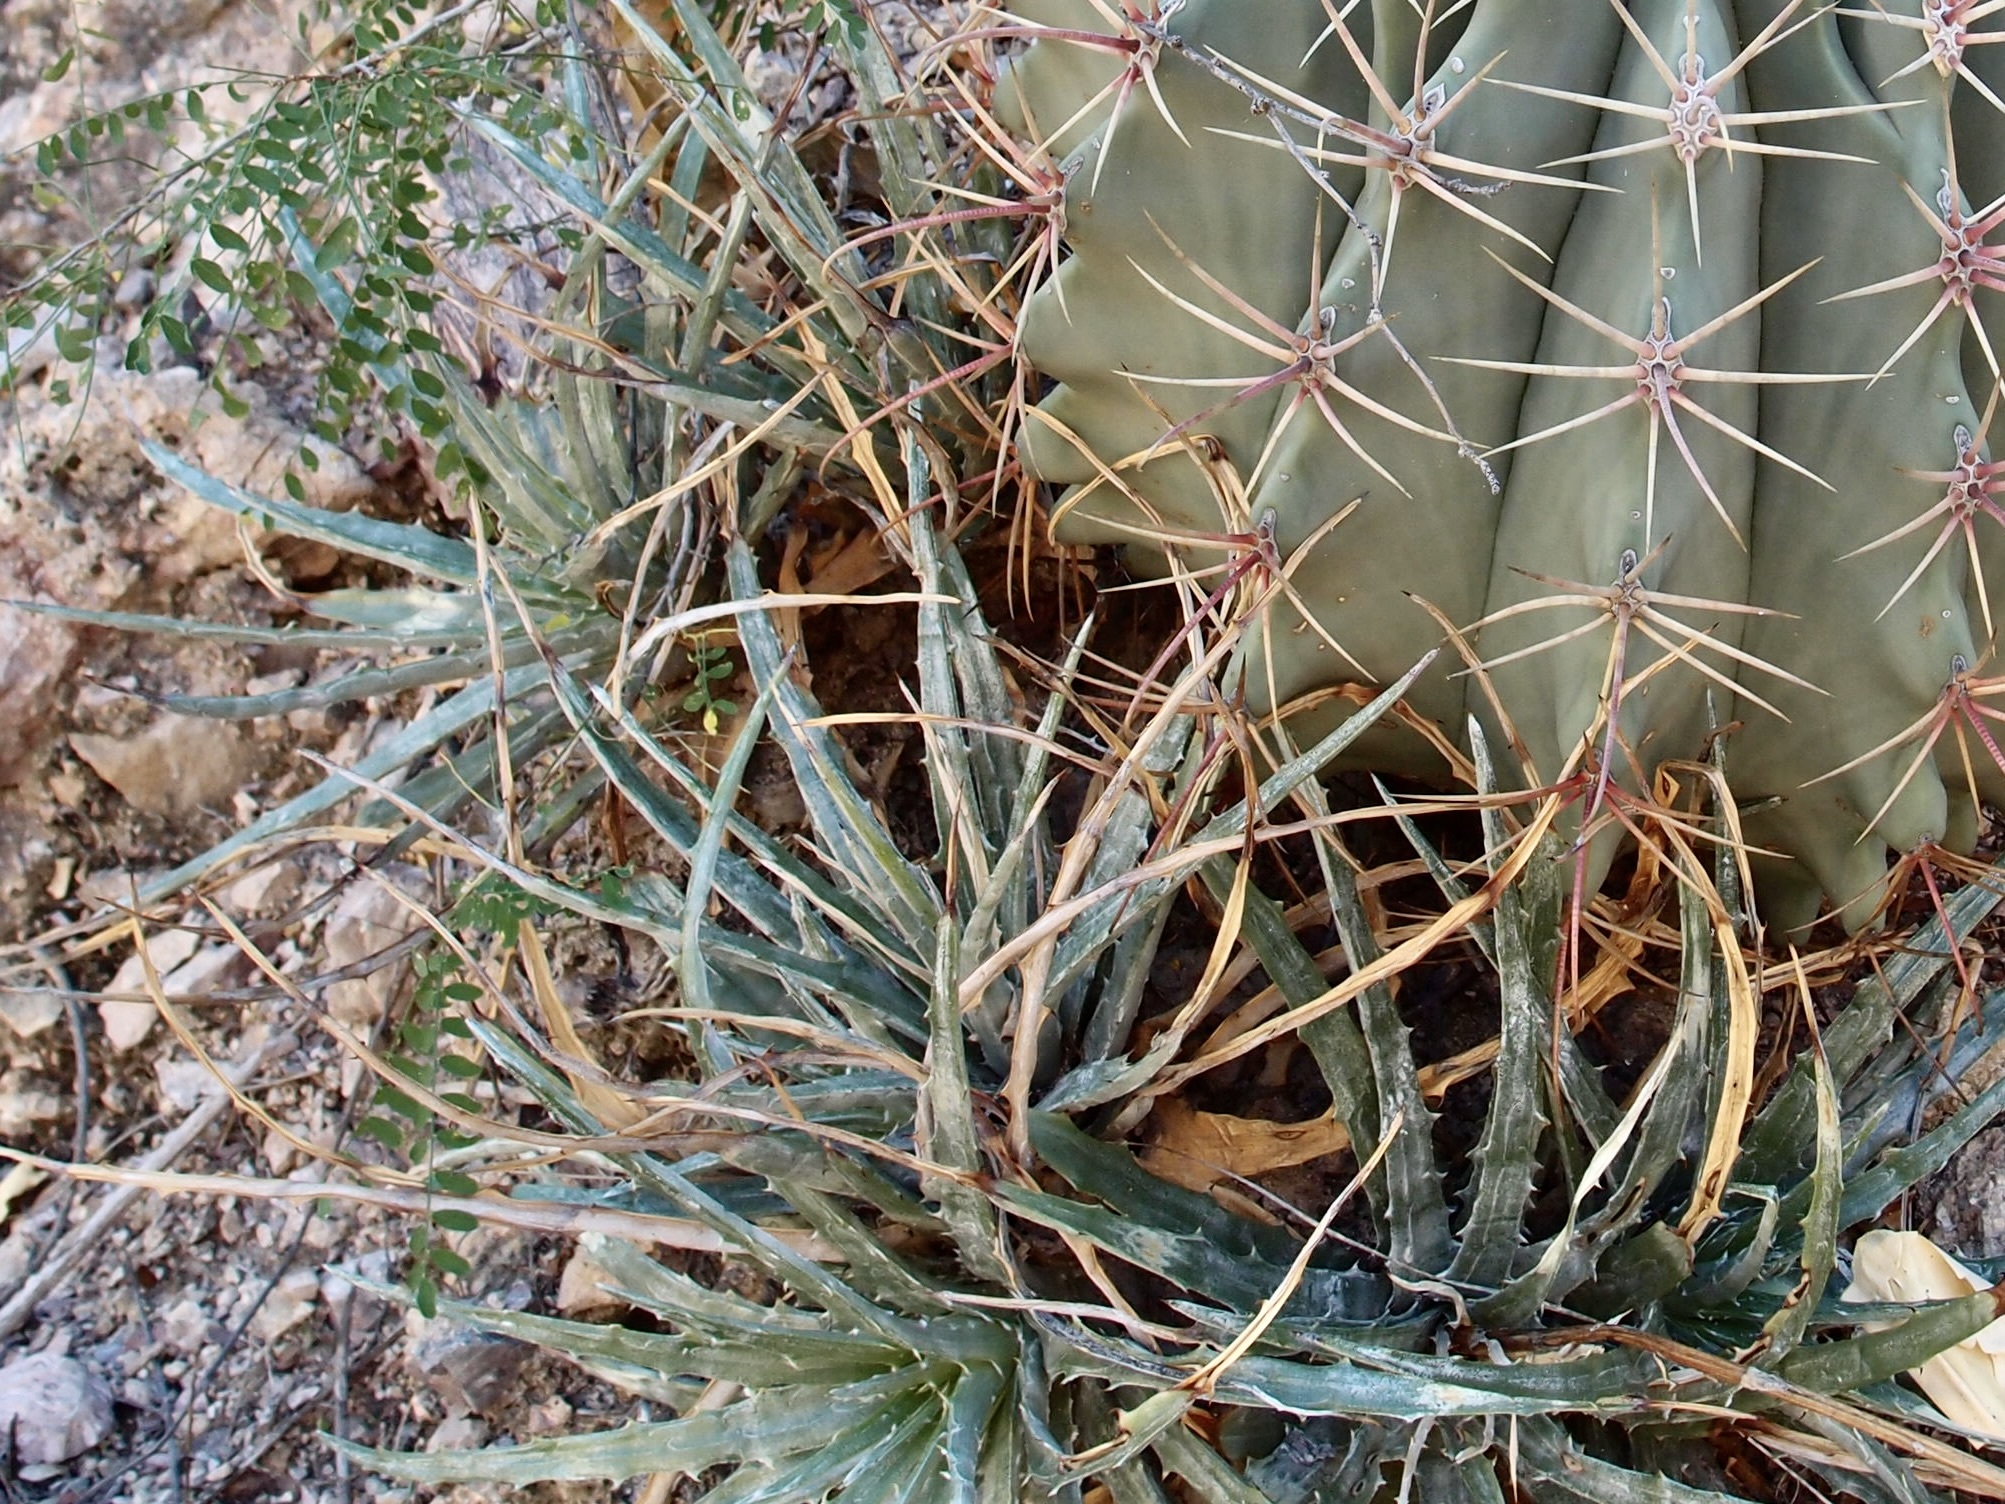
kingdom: Plantae
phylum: Tracheophyta
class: Liliopsida
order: Poales
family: Bromeliaceae
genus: Hechtia
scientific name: Hechtia montana
